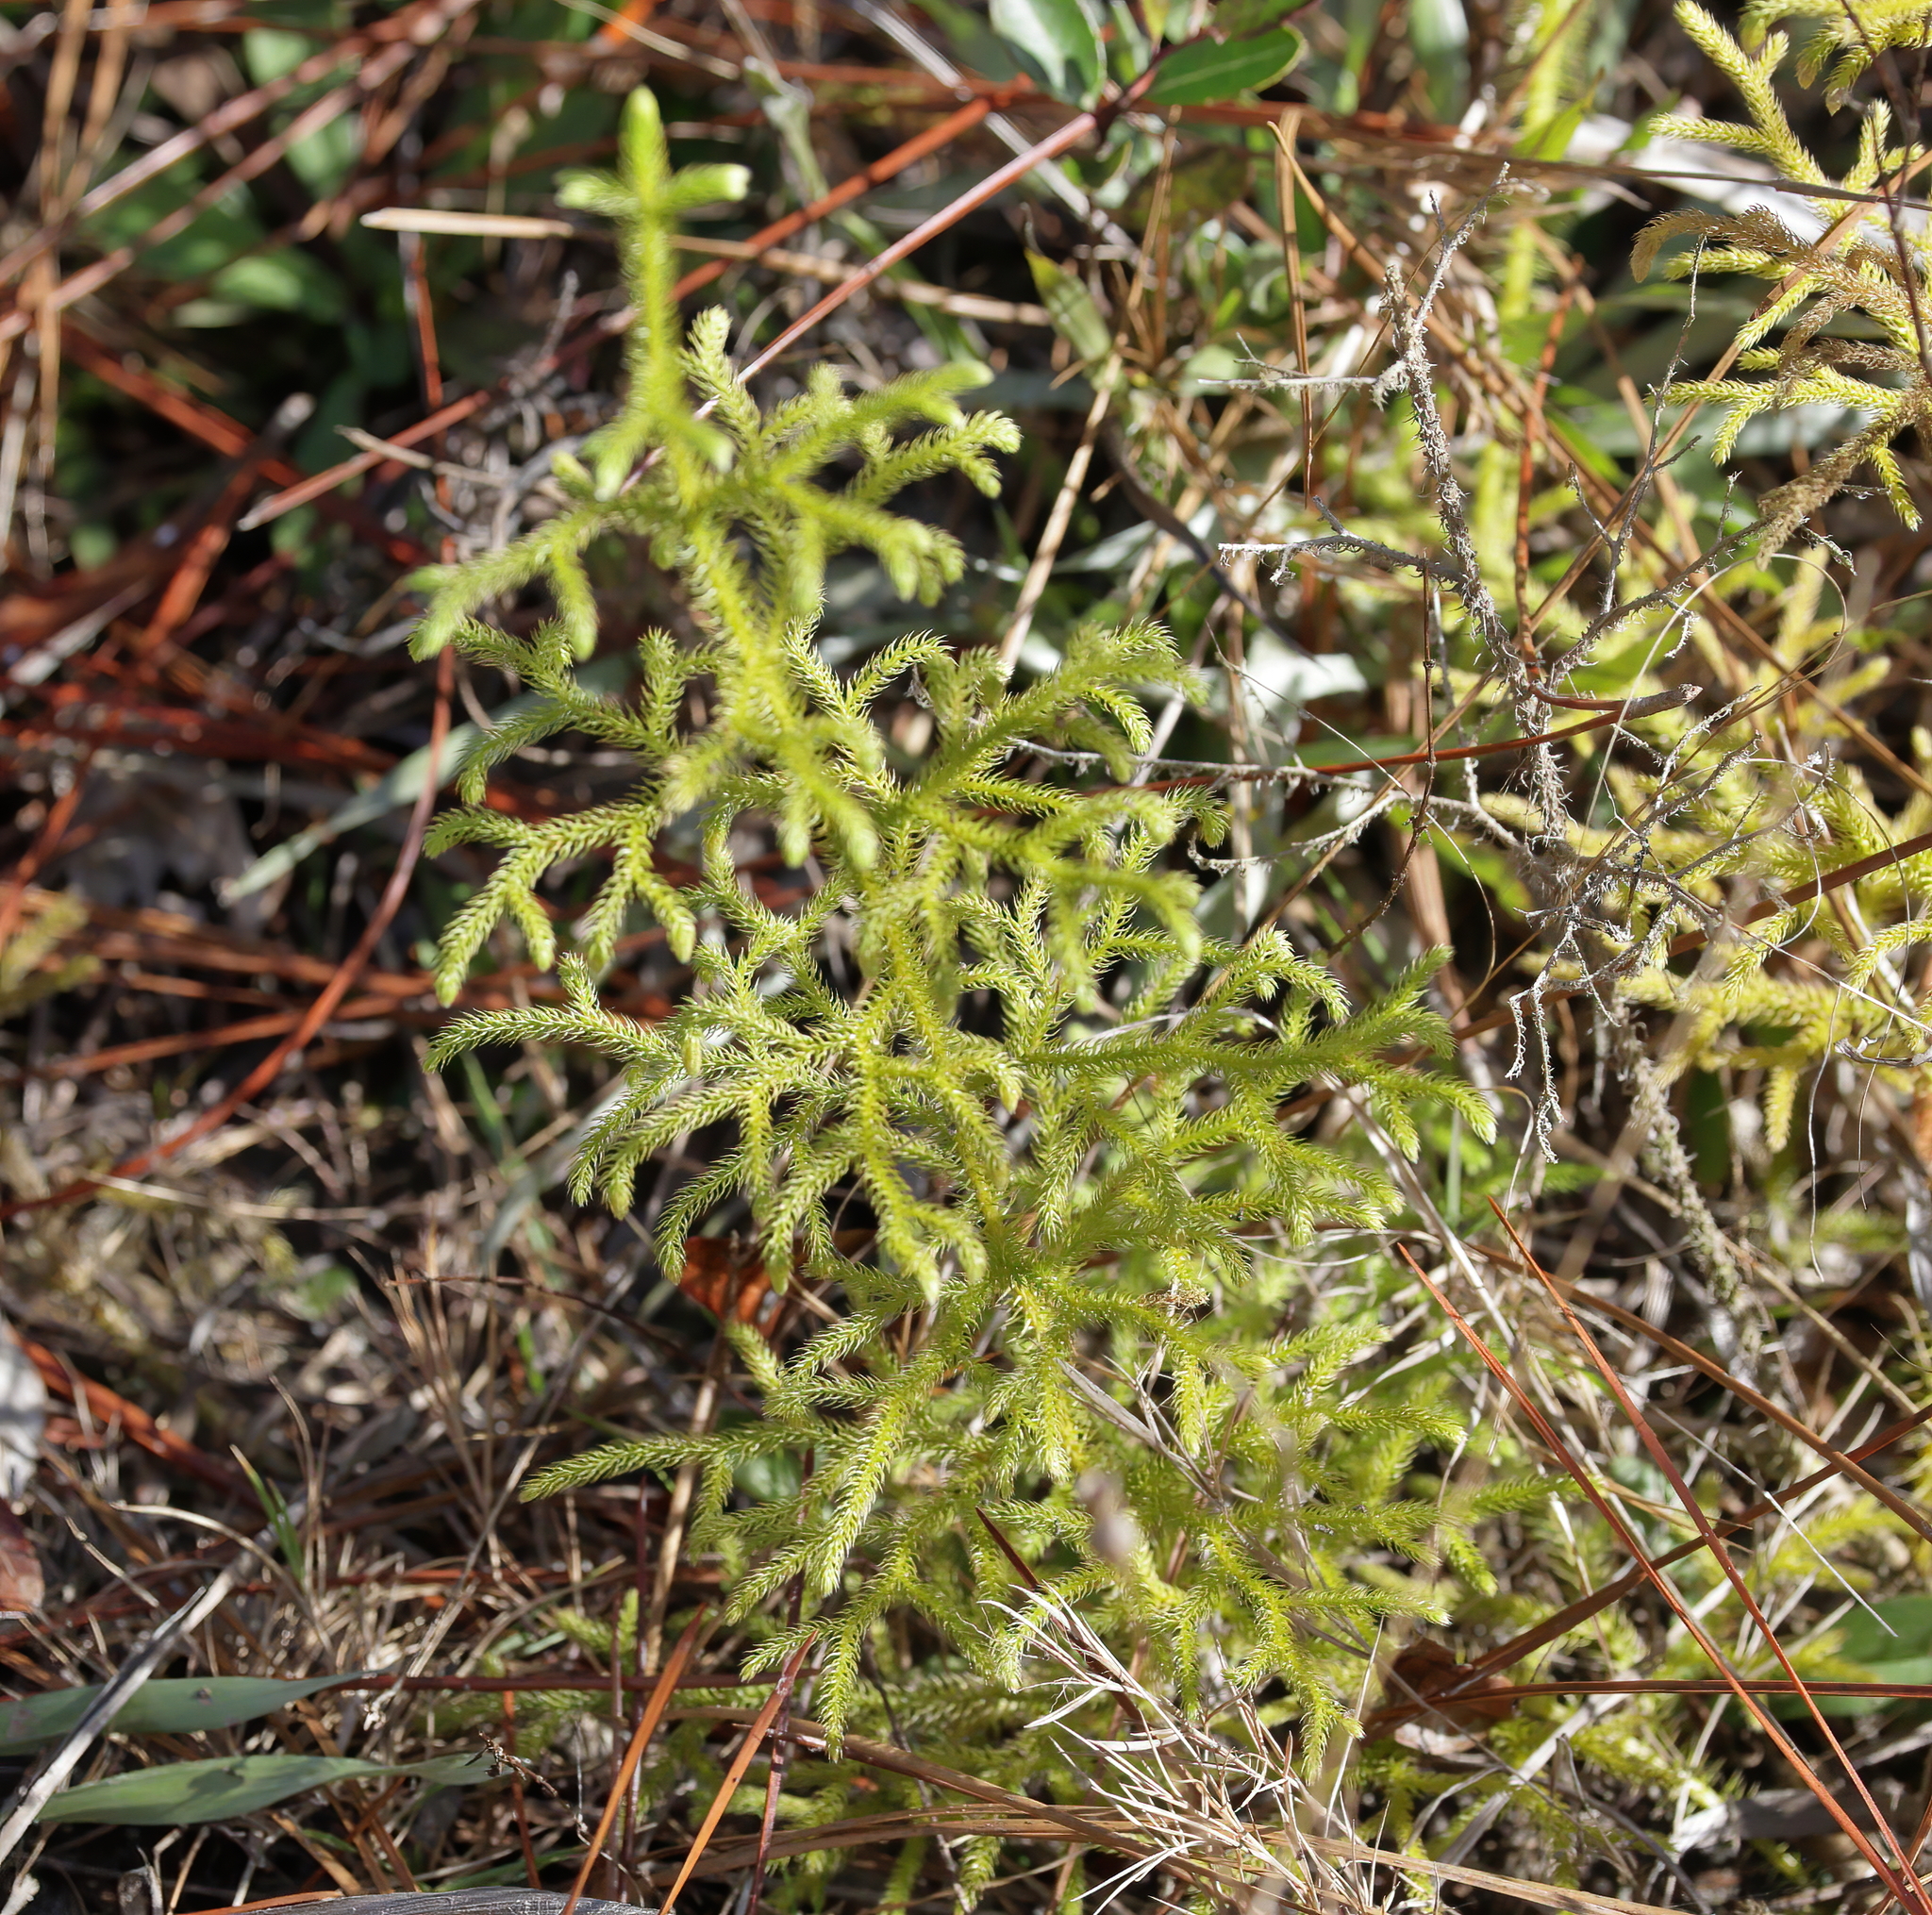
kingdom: Plantae
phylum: Tracheophyta
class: Lycopodiopsida
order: Lycopodiales
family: Lycopodiaceae
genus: Palhinhaea
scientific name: Palhinhaea cernua
